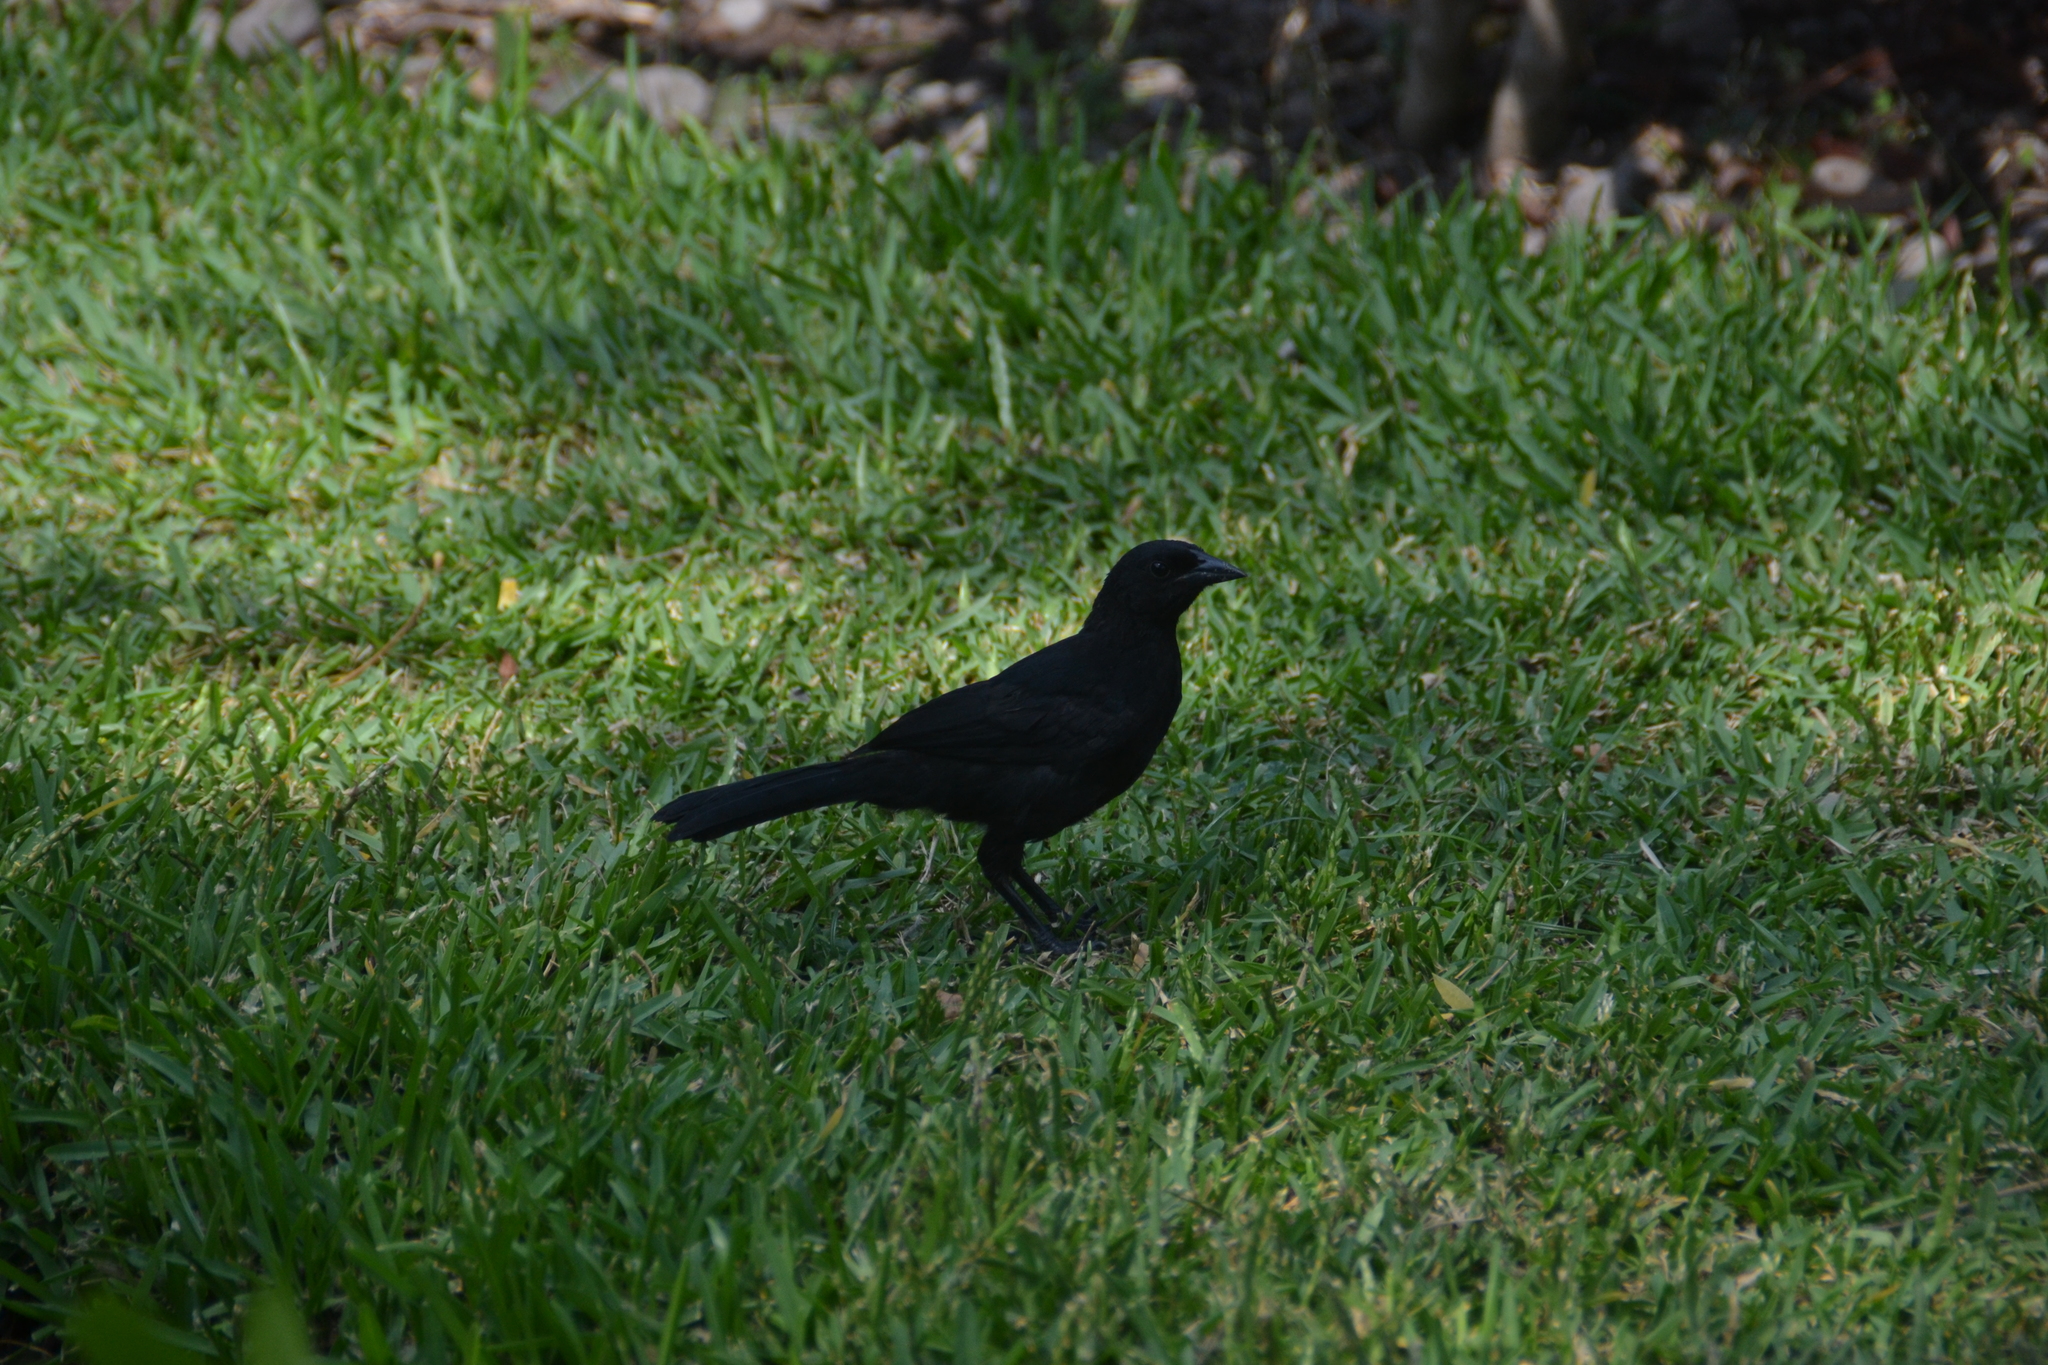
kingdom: Animalia
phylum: Chordata
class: Aves
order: Passeriformes
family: Icteridae
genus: Dives
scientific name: Dives warczewiczi
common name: Scrub blackbird
